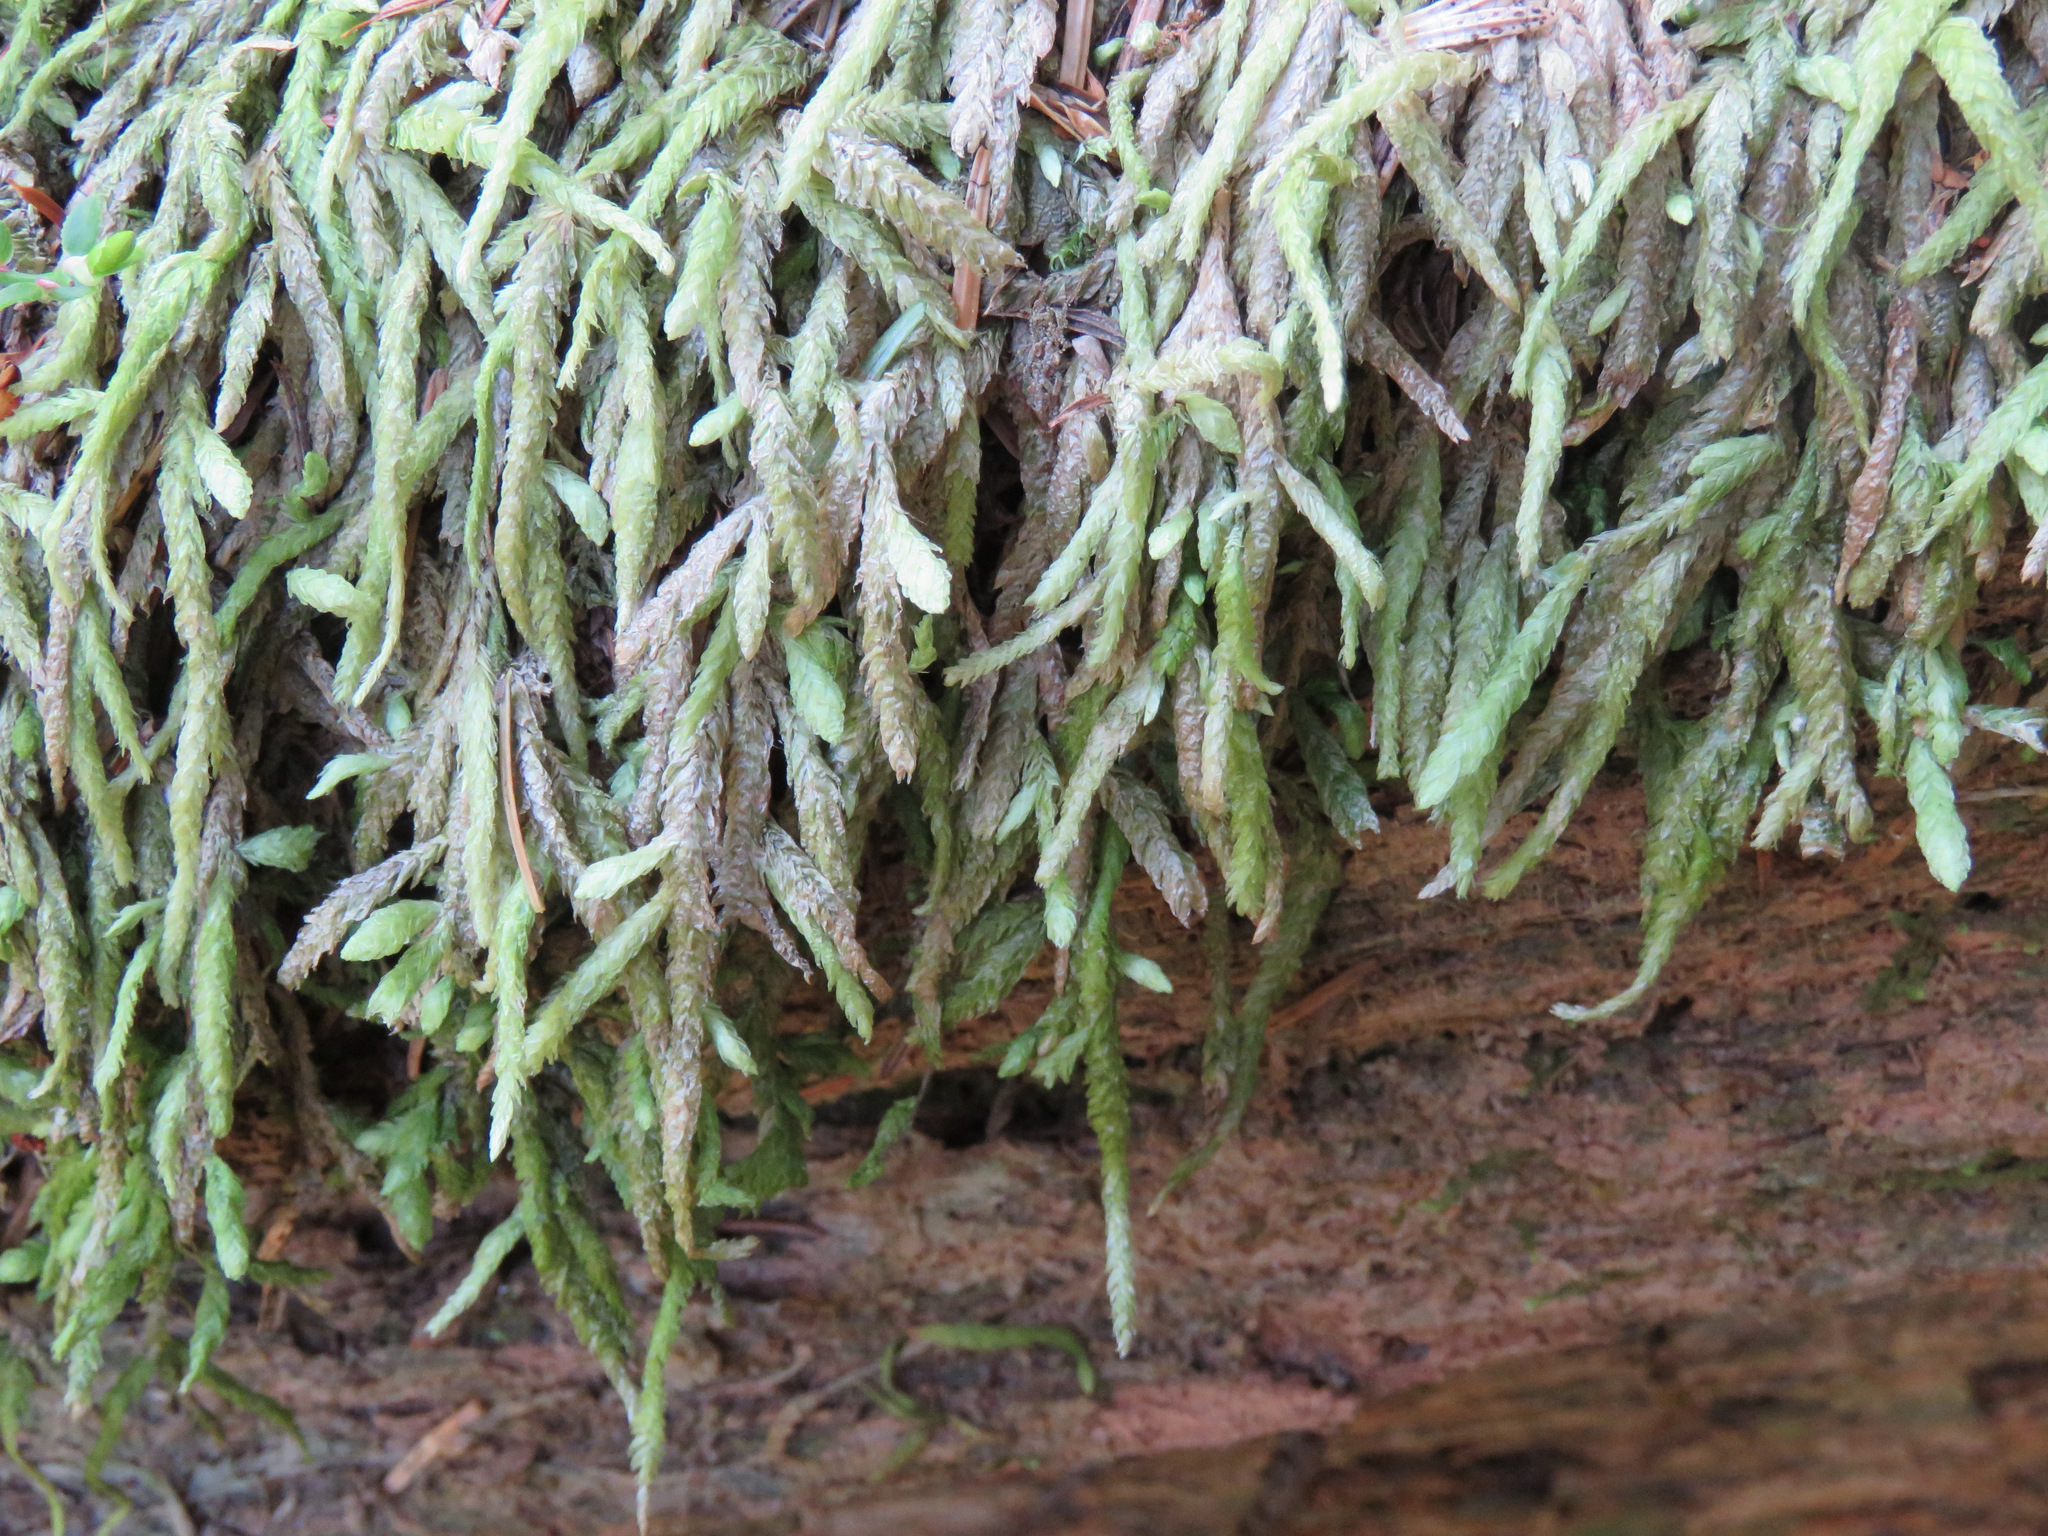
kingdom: Plantae
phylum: Bryophyta
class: Bryopsida
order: Hypnales
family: Plagiotheciaceae
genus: Plagiothecium
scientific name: Plagiothecium undulatum
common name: Waved silk-moss
